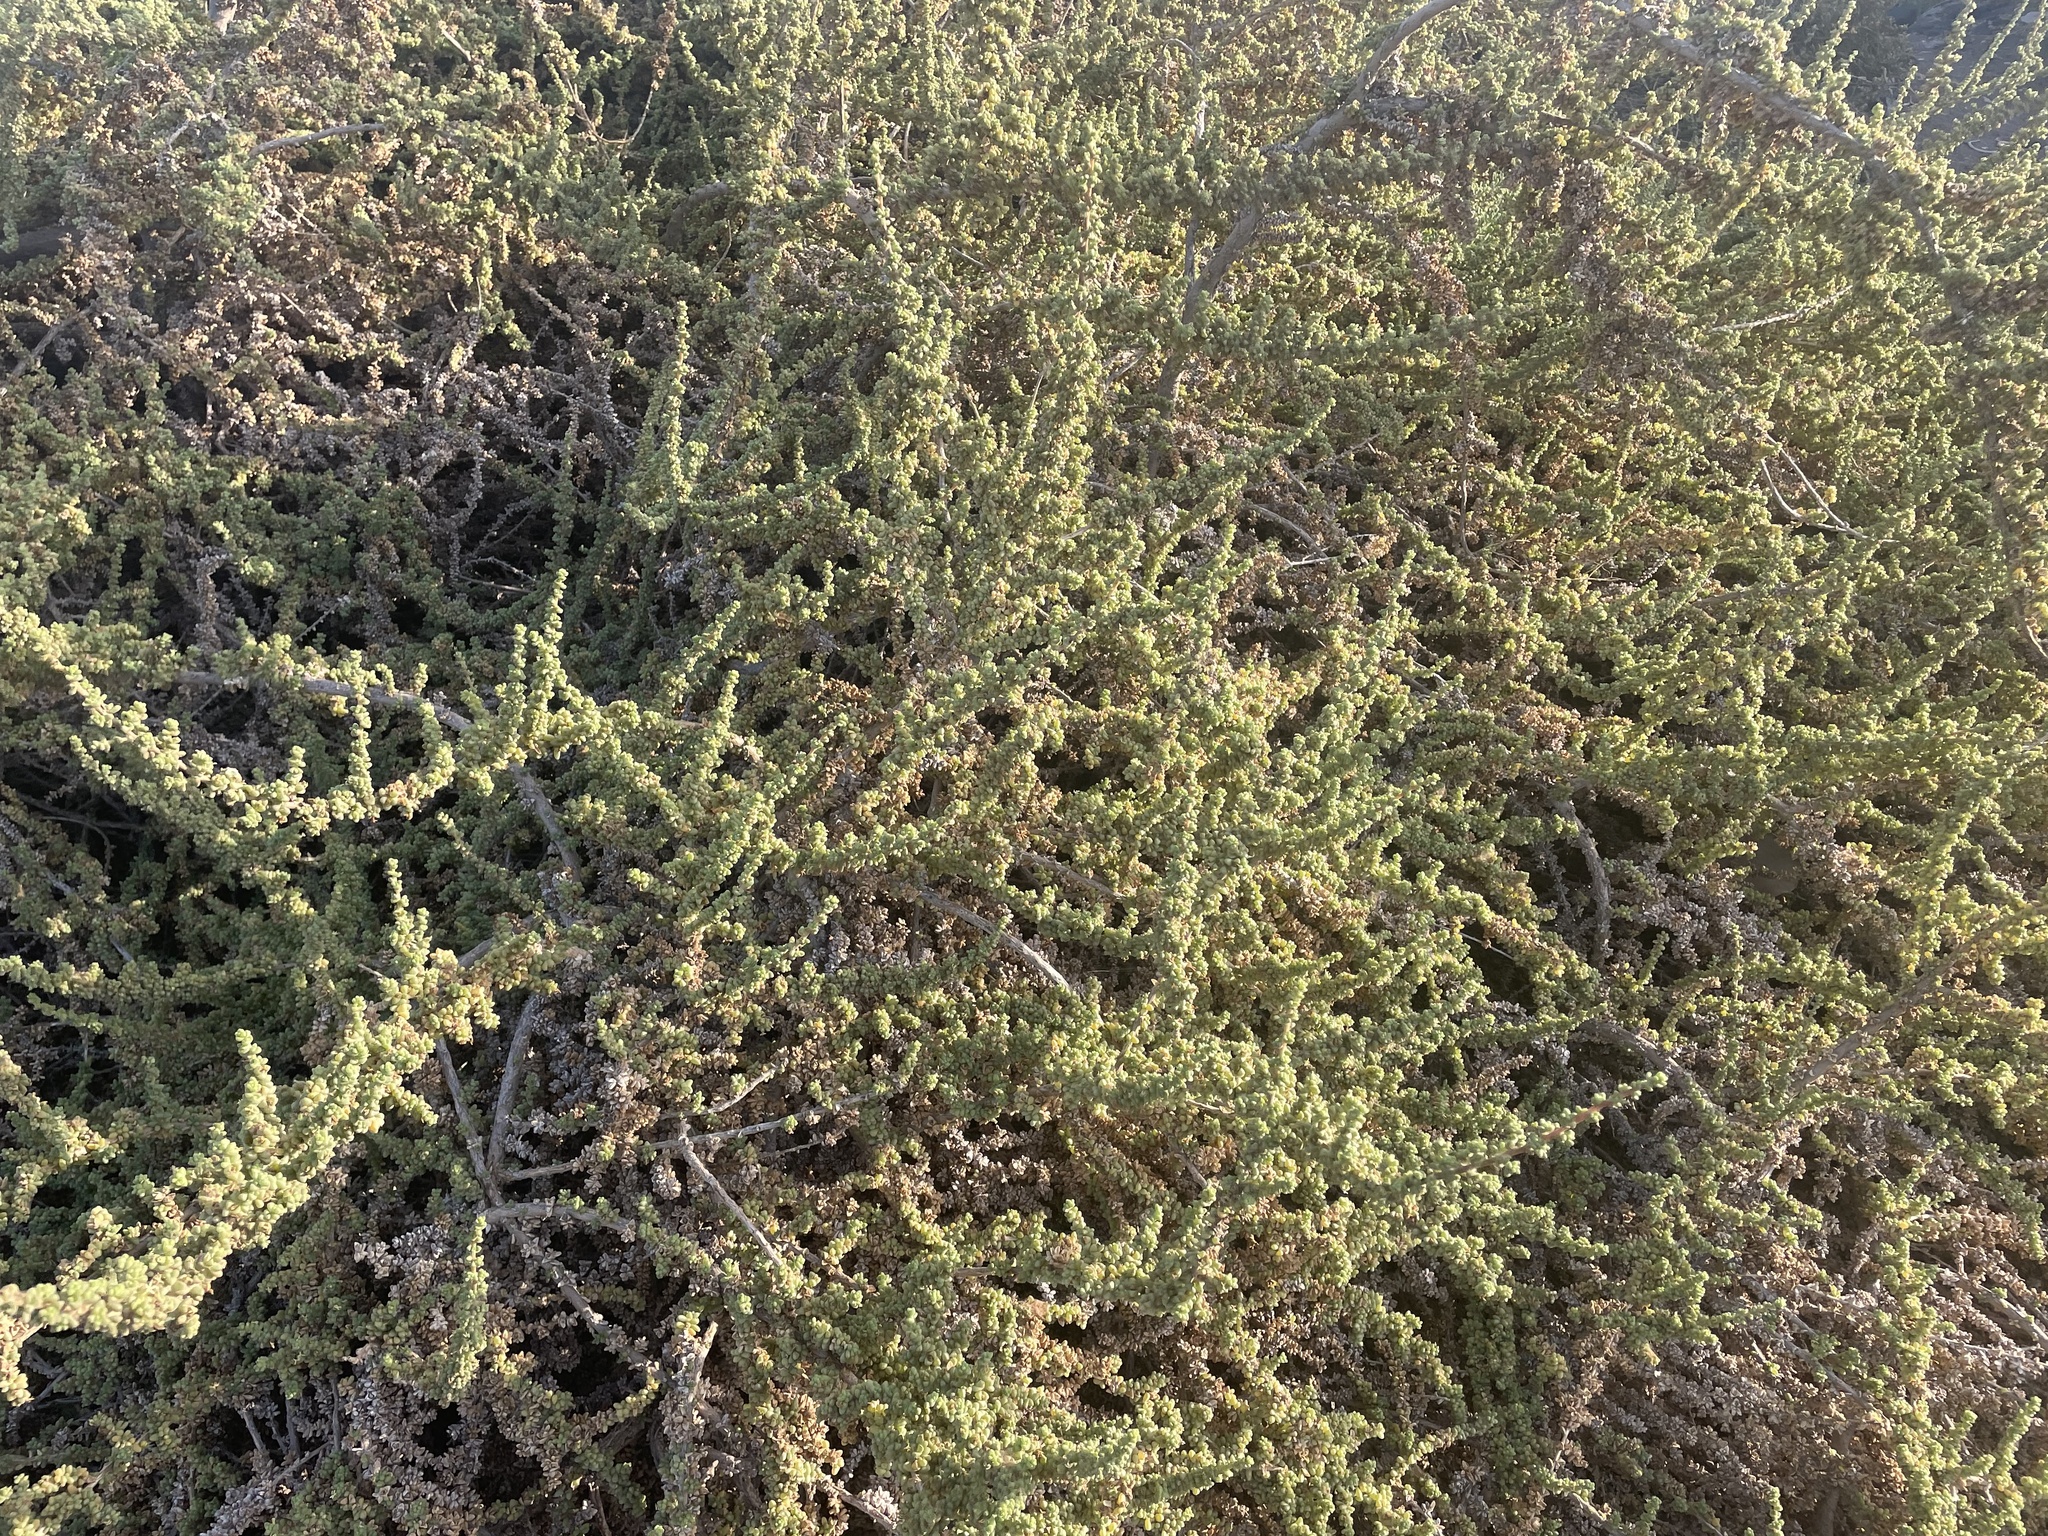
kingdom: Plantae
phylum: Tracheophyta
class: Magnoliopsida
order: Caryophyllales
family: Amaranthaceae
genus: Traganum
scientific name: Traganum moquinii
